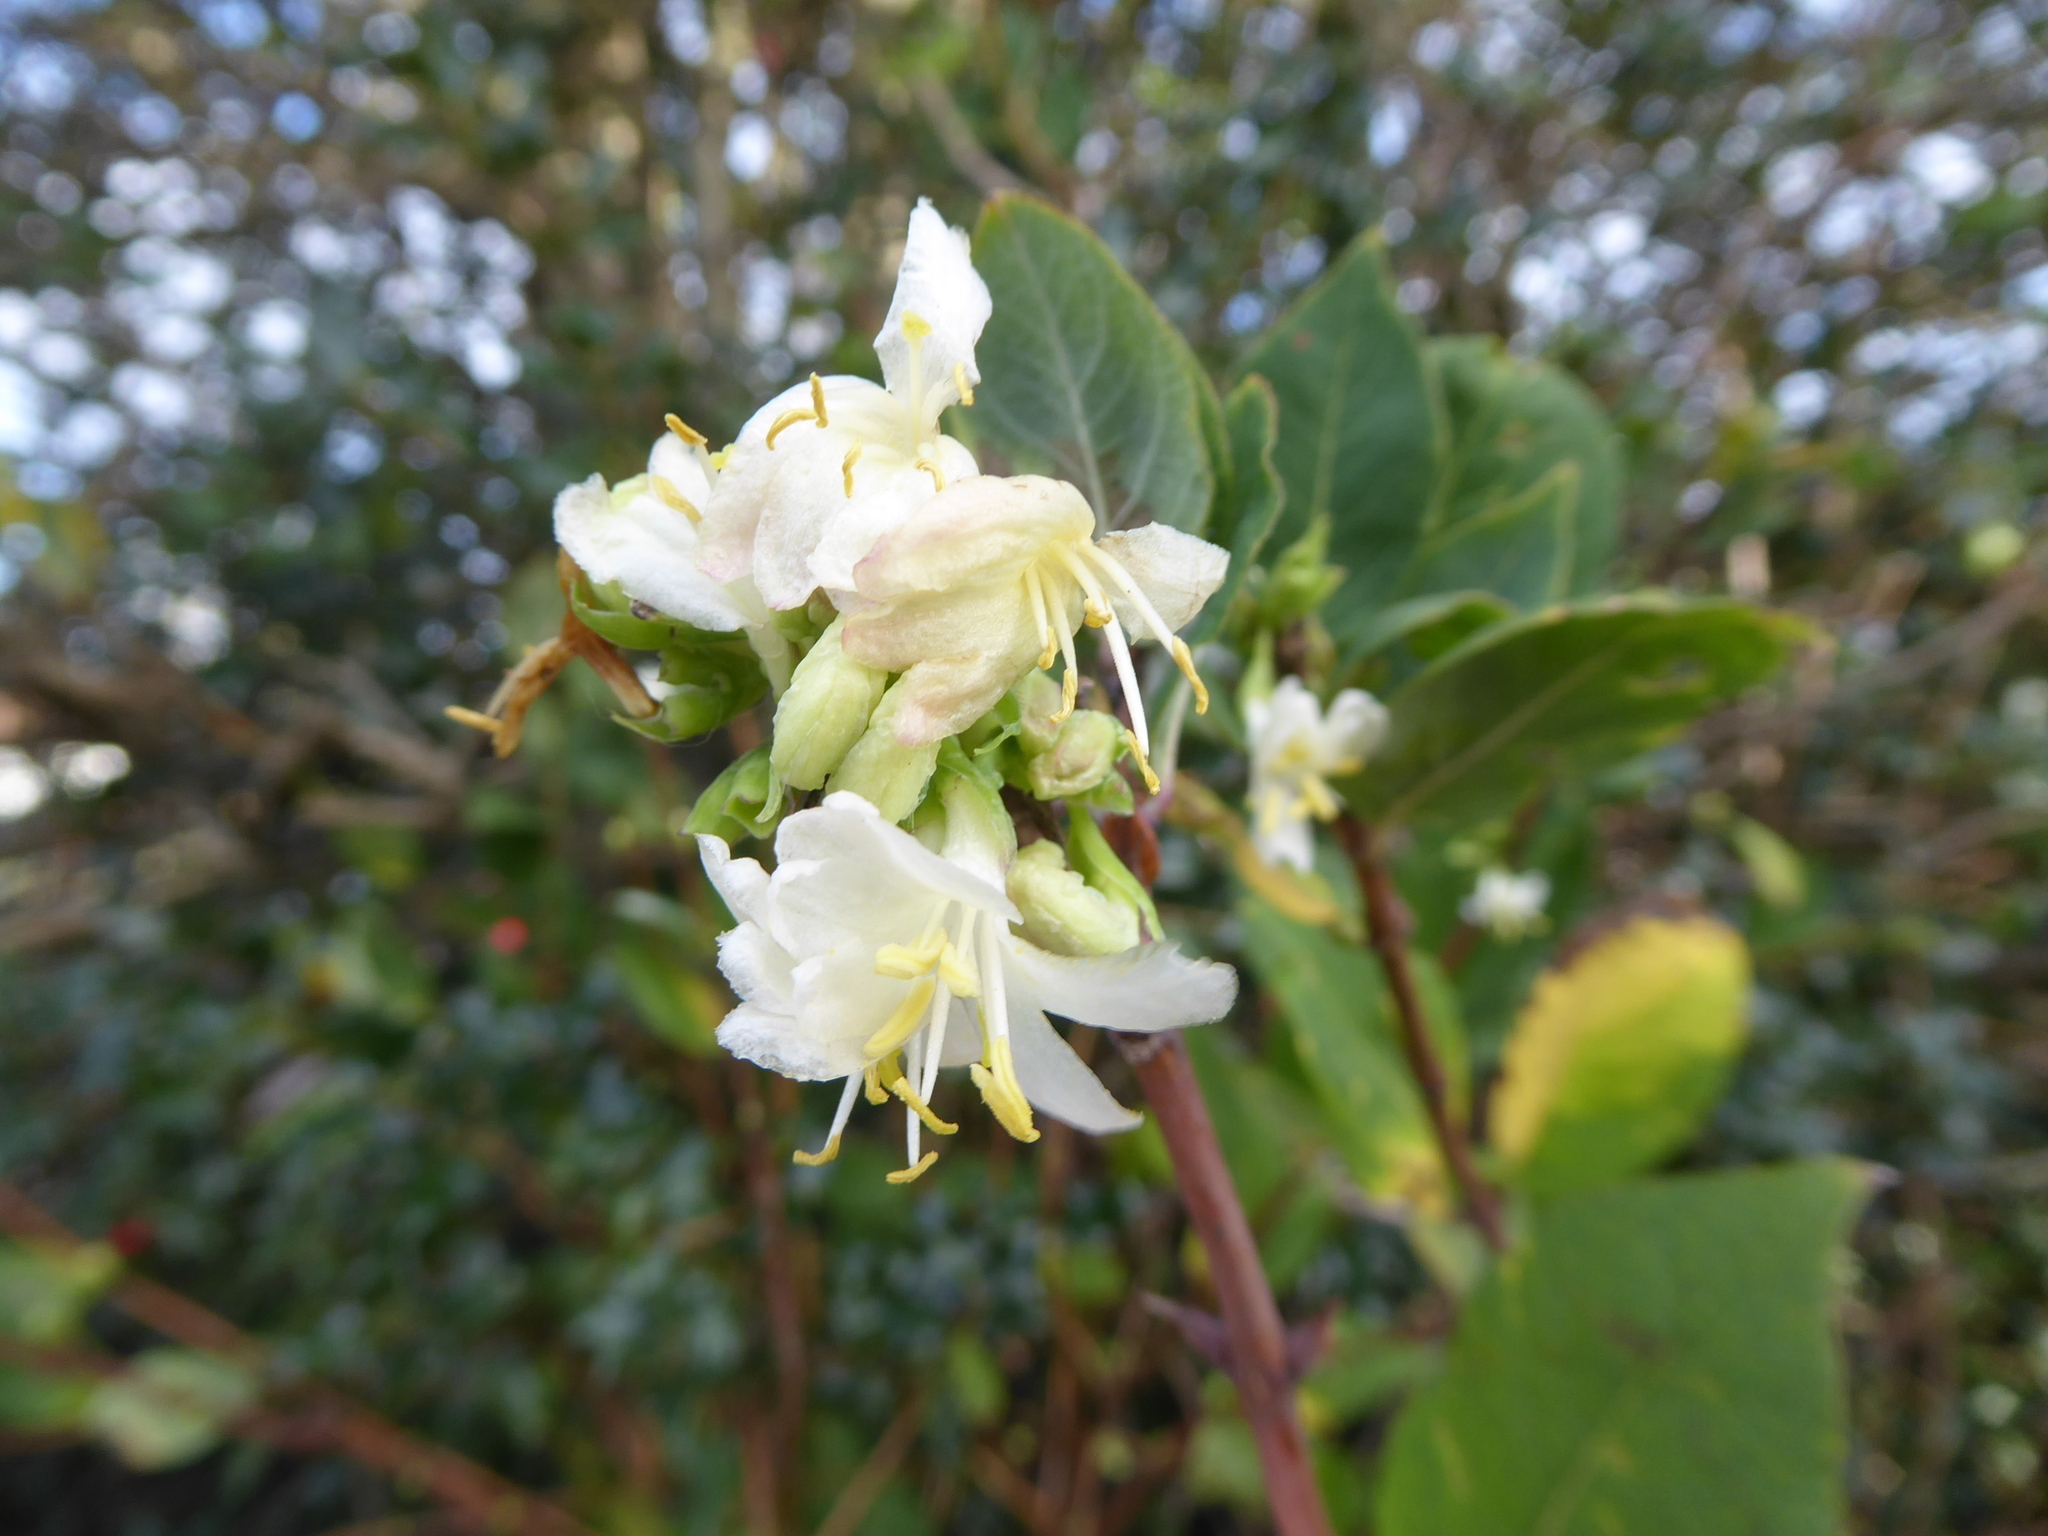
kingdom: Plantae
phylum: Tracheophyta
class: Magnoliopsida
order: Dipsacales
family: Caprifoliaceae
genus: Lonicera
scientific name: Lonicera fragrantissima
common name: Fragrant honeysuckle
